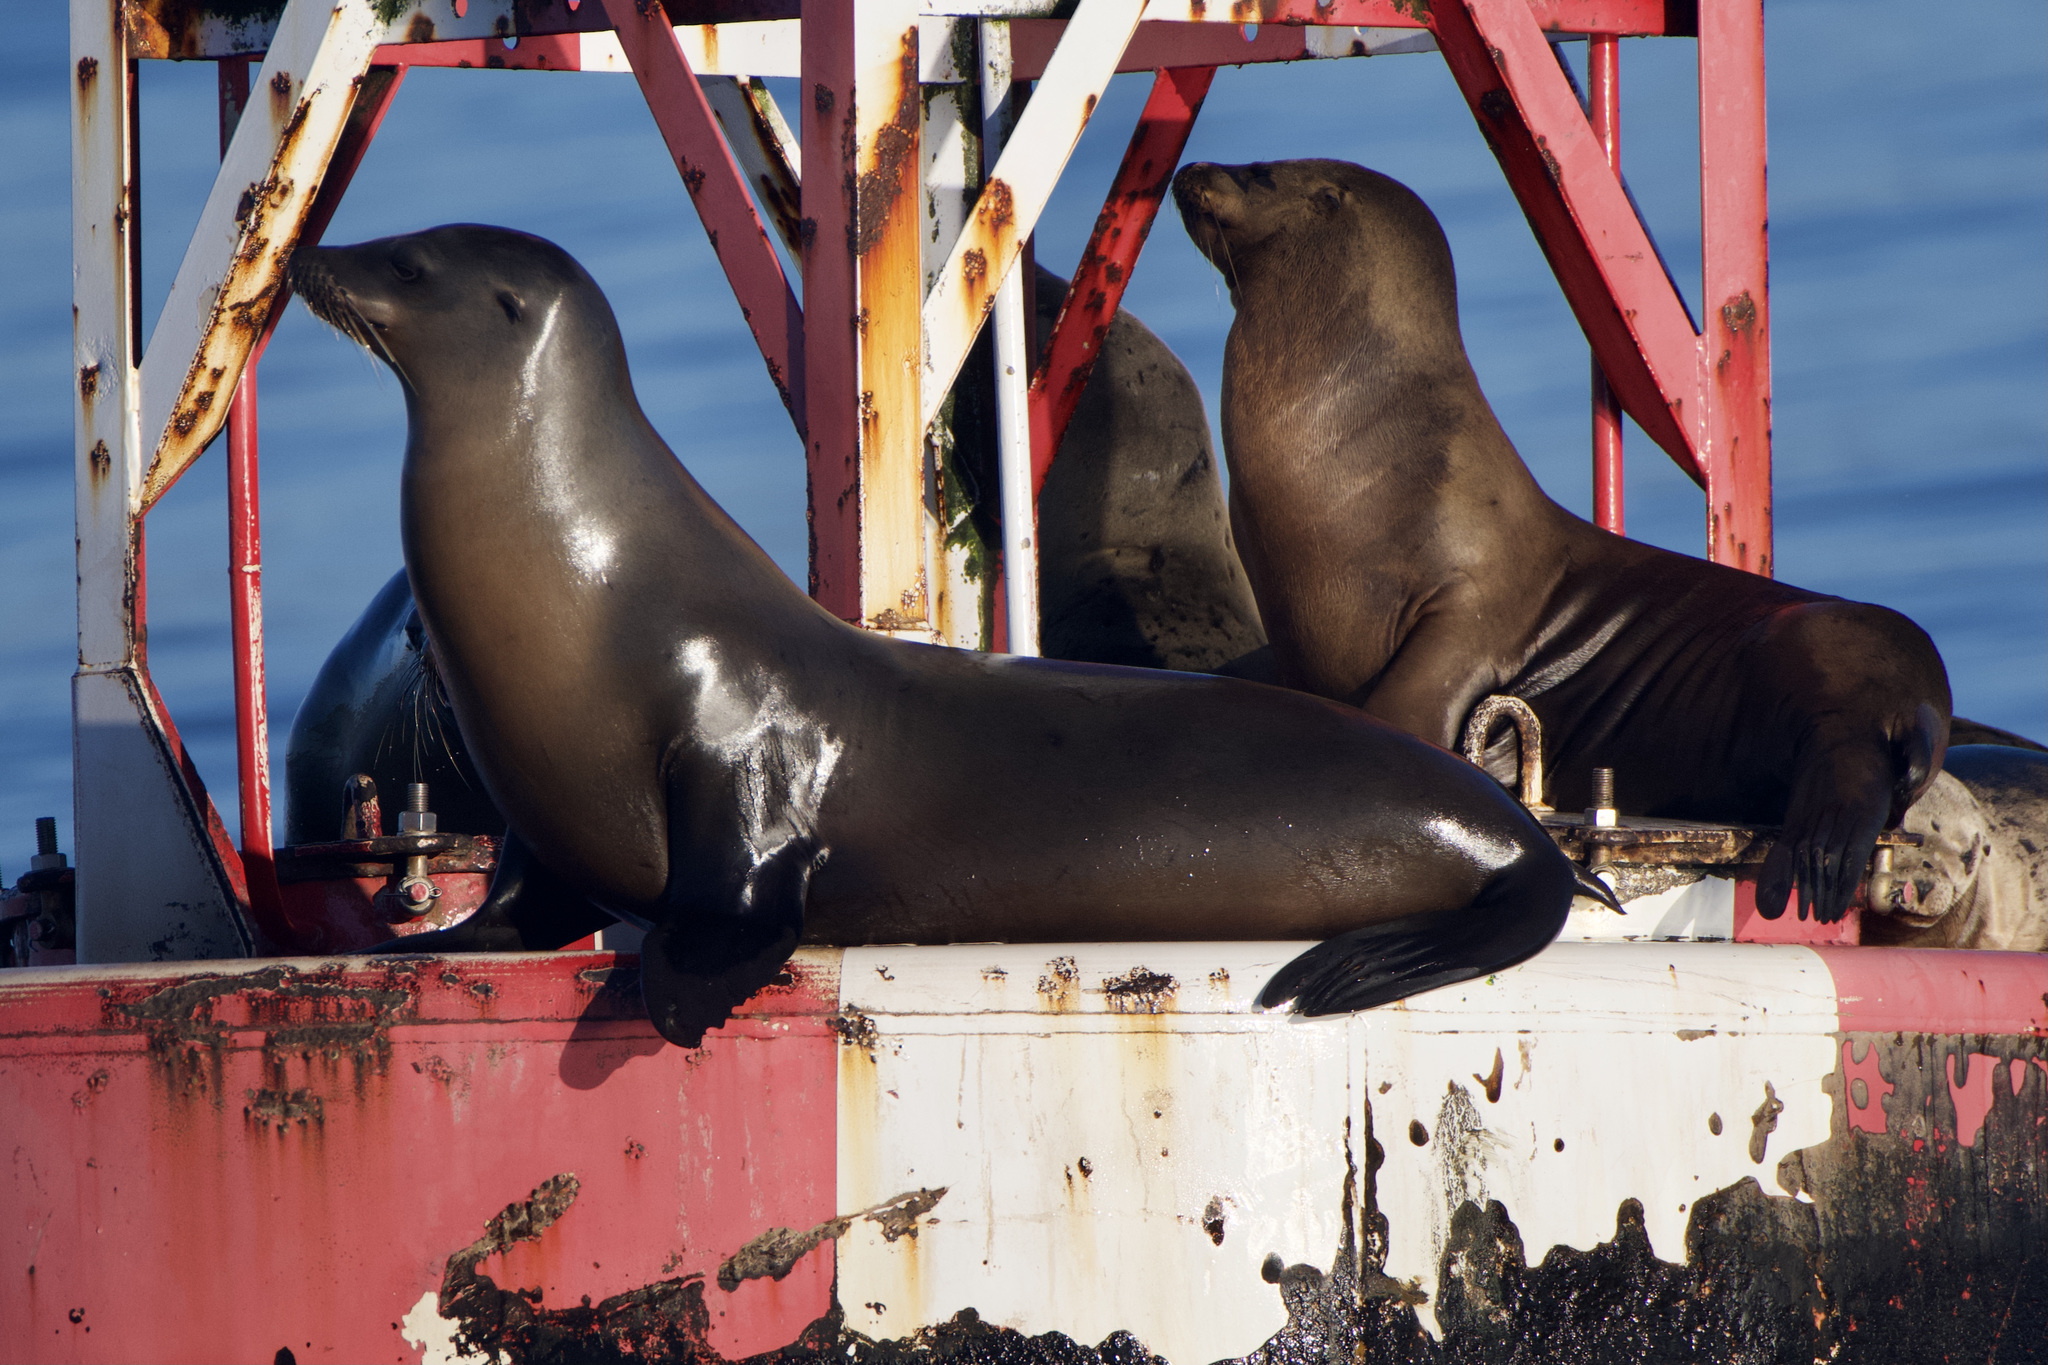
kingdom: Animalia
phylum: Chordata
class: Mammalia
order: Carnivora
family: Otariidae
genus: Zalophus
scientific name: Zalophus californianus
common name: California sea lion
